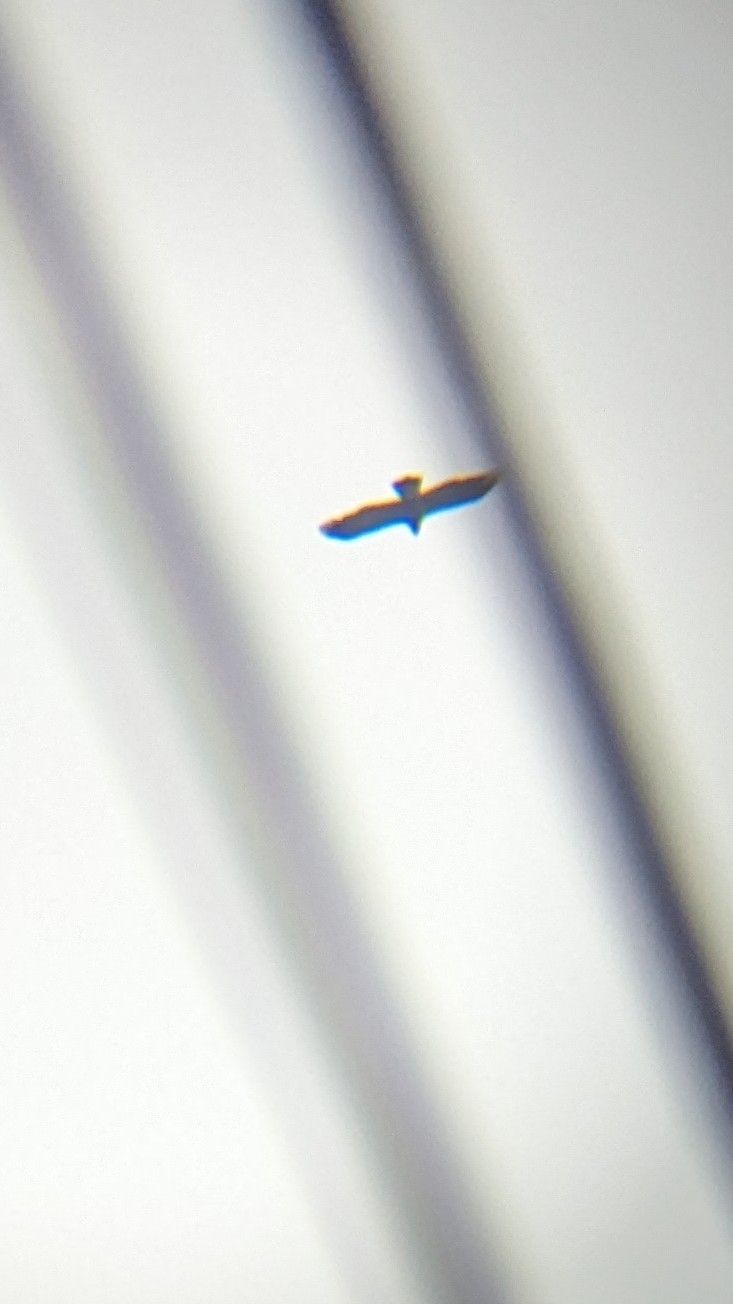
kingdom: Animalia
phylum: Chordata
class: Aves
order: Accipitriformes
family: Accipitridae
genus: Aquila
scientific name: Aquila chrysaetos
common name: Golden eagle
